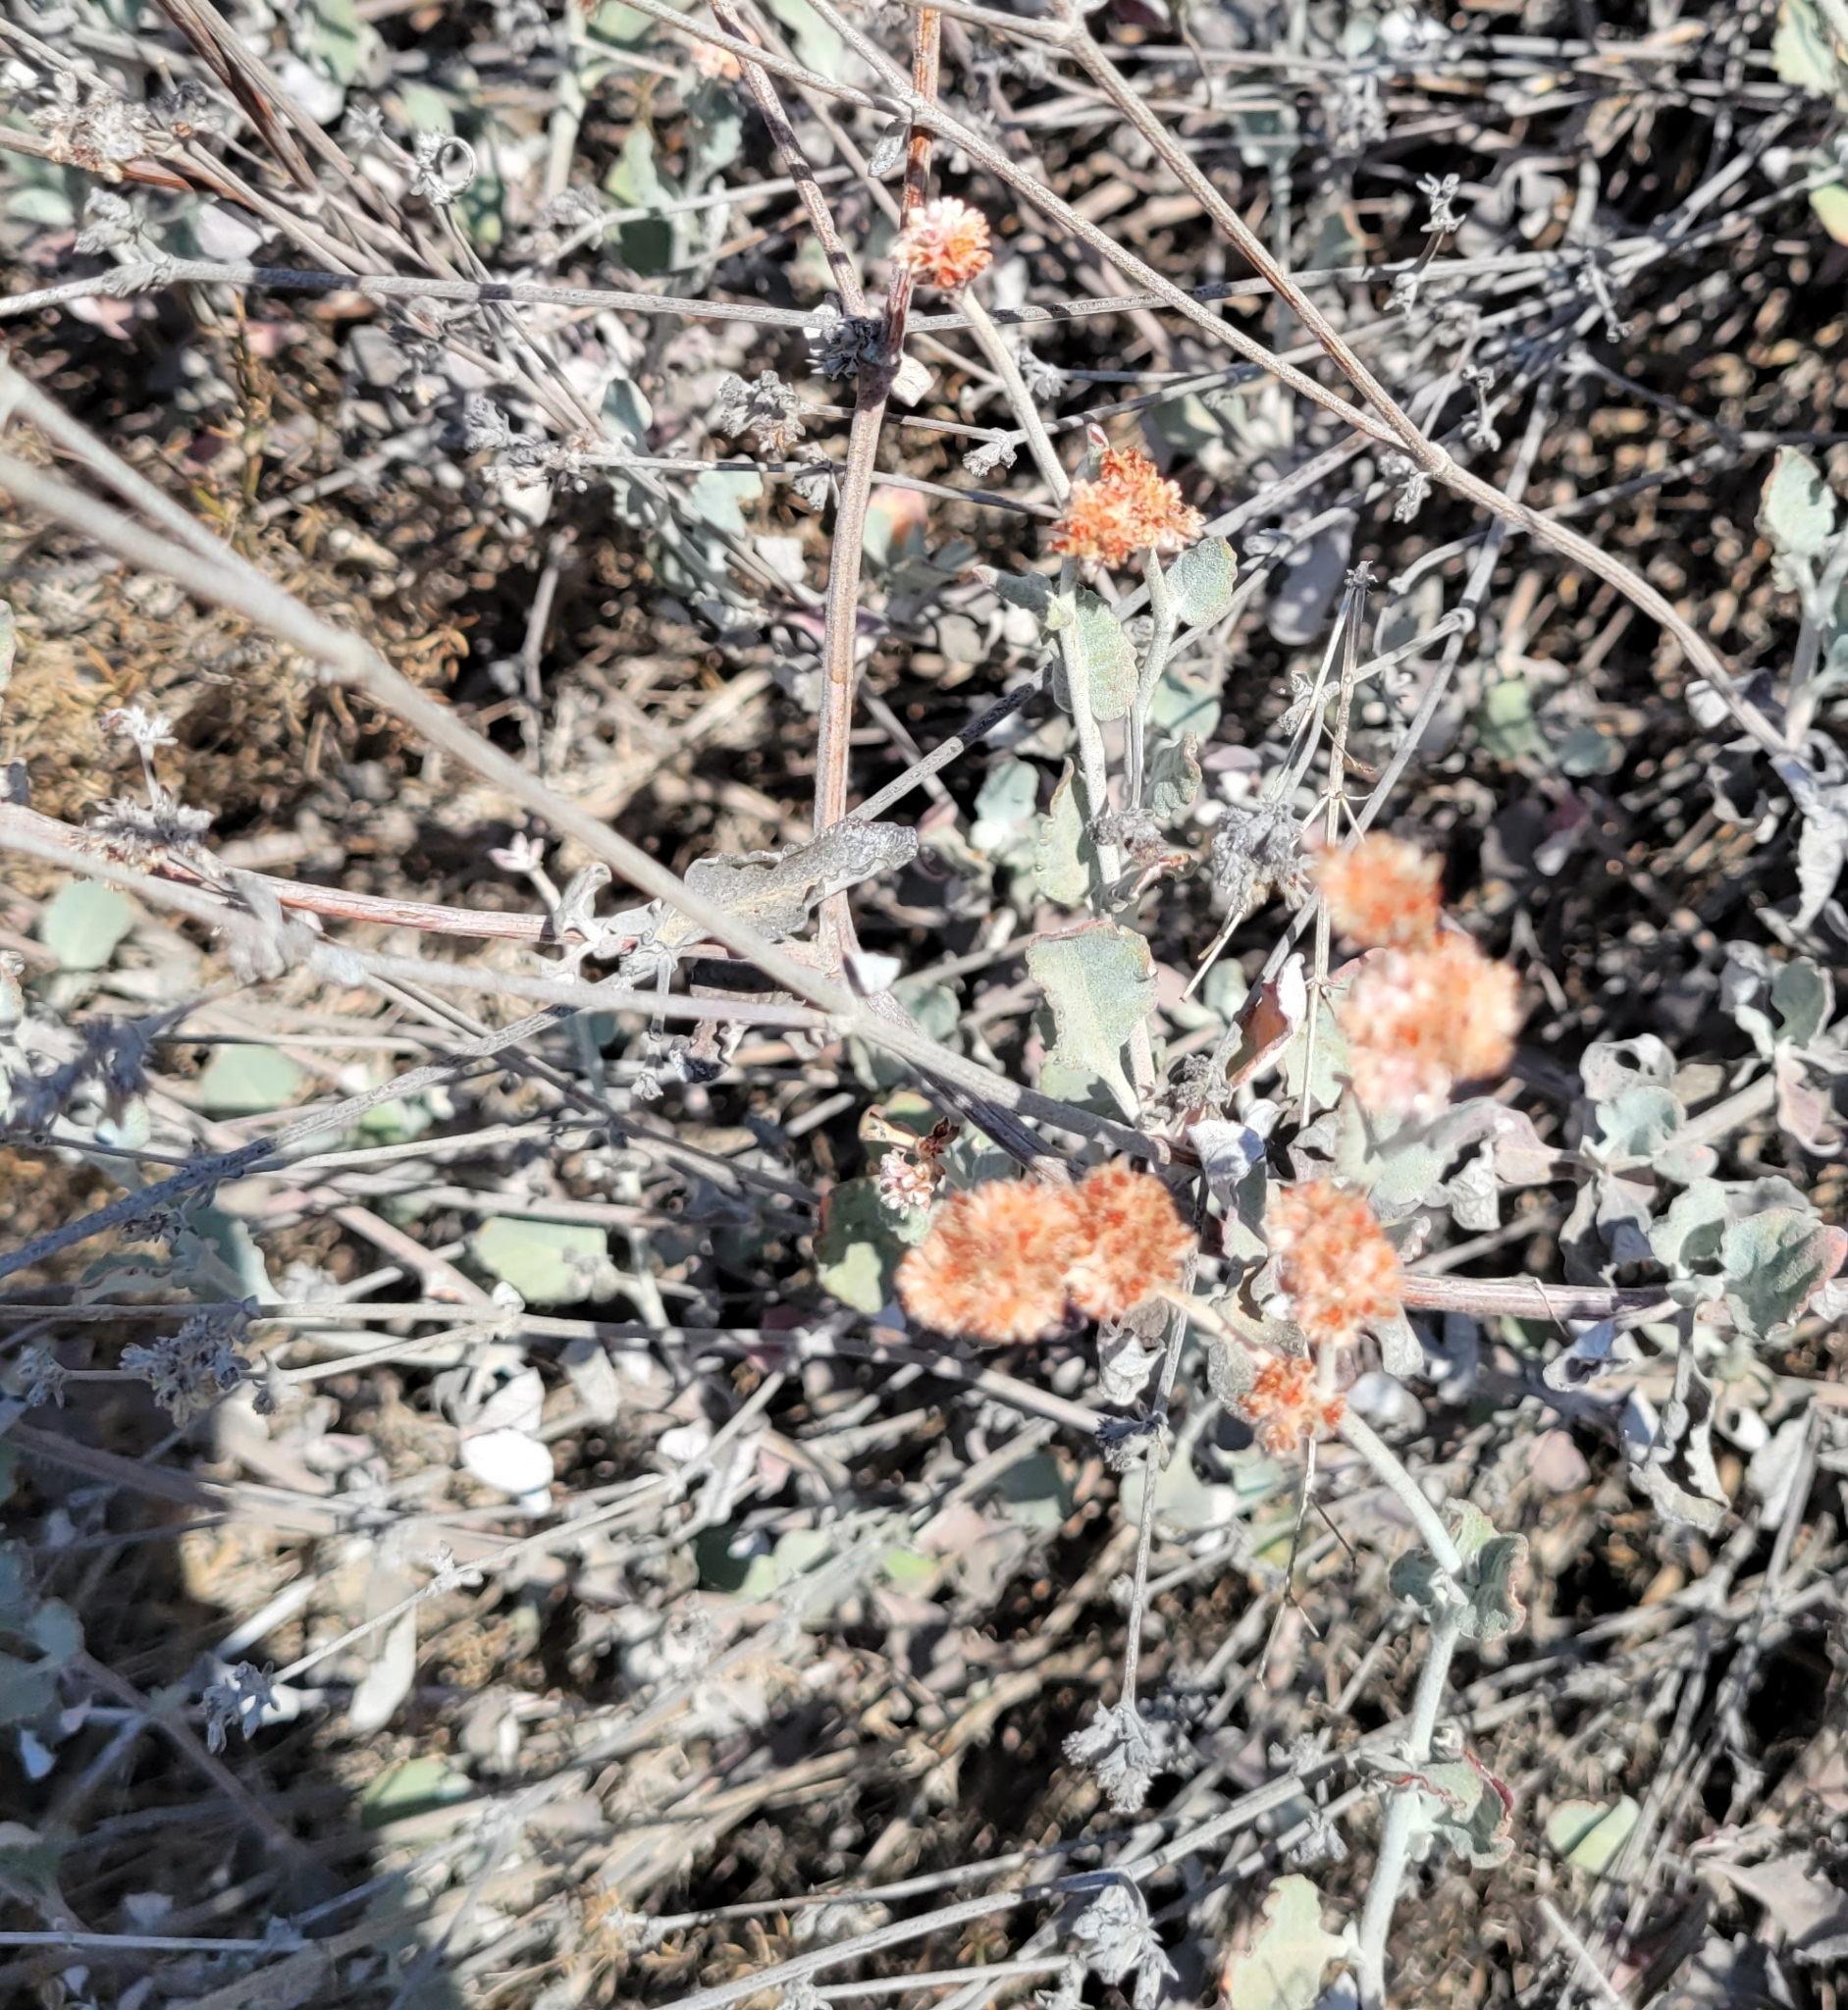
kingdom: Plantae
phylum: Tracheophyta
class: Magnoliopsida
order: Caryophyllales
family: Polygonaceae
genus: Eriogonum
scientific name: Eriogonum cinereum
